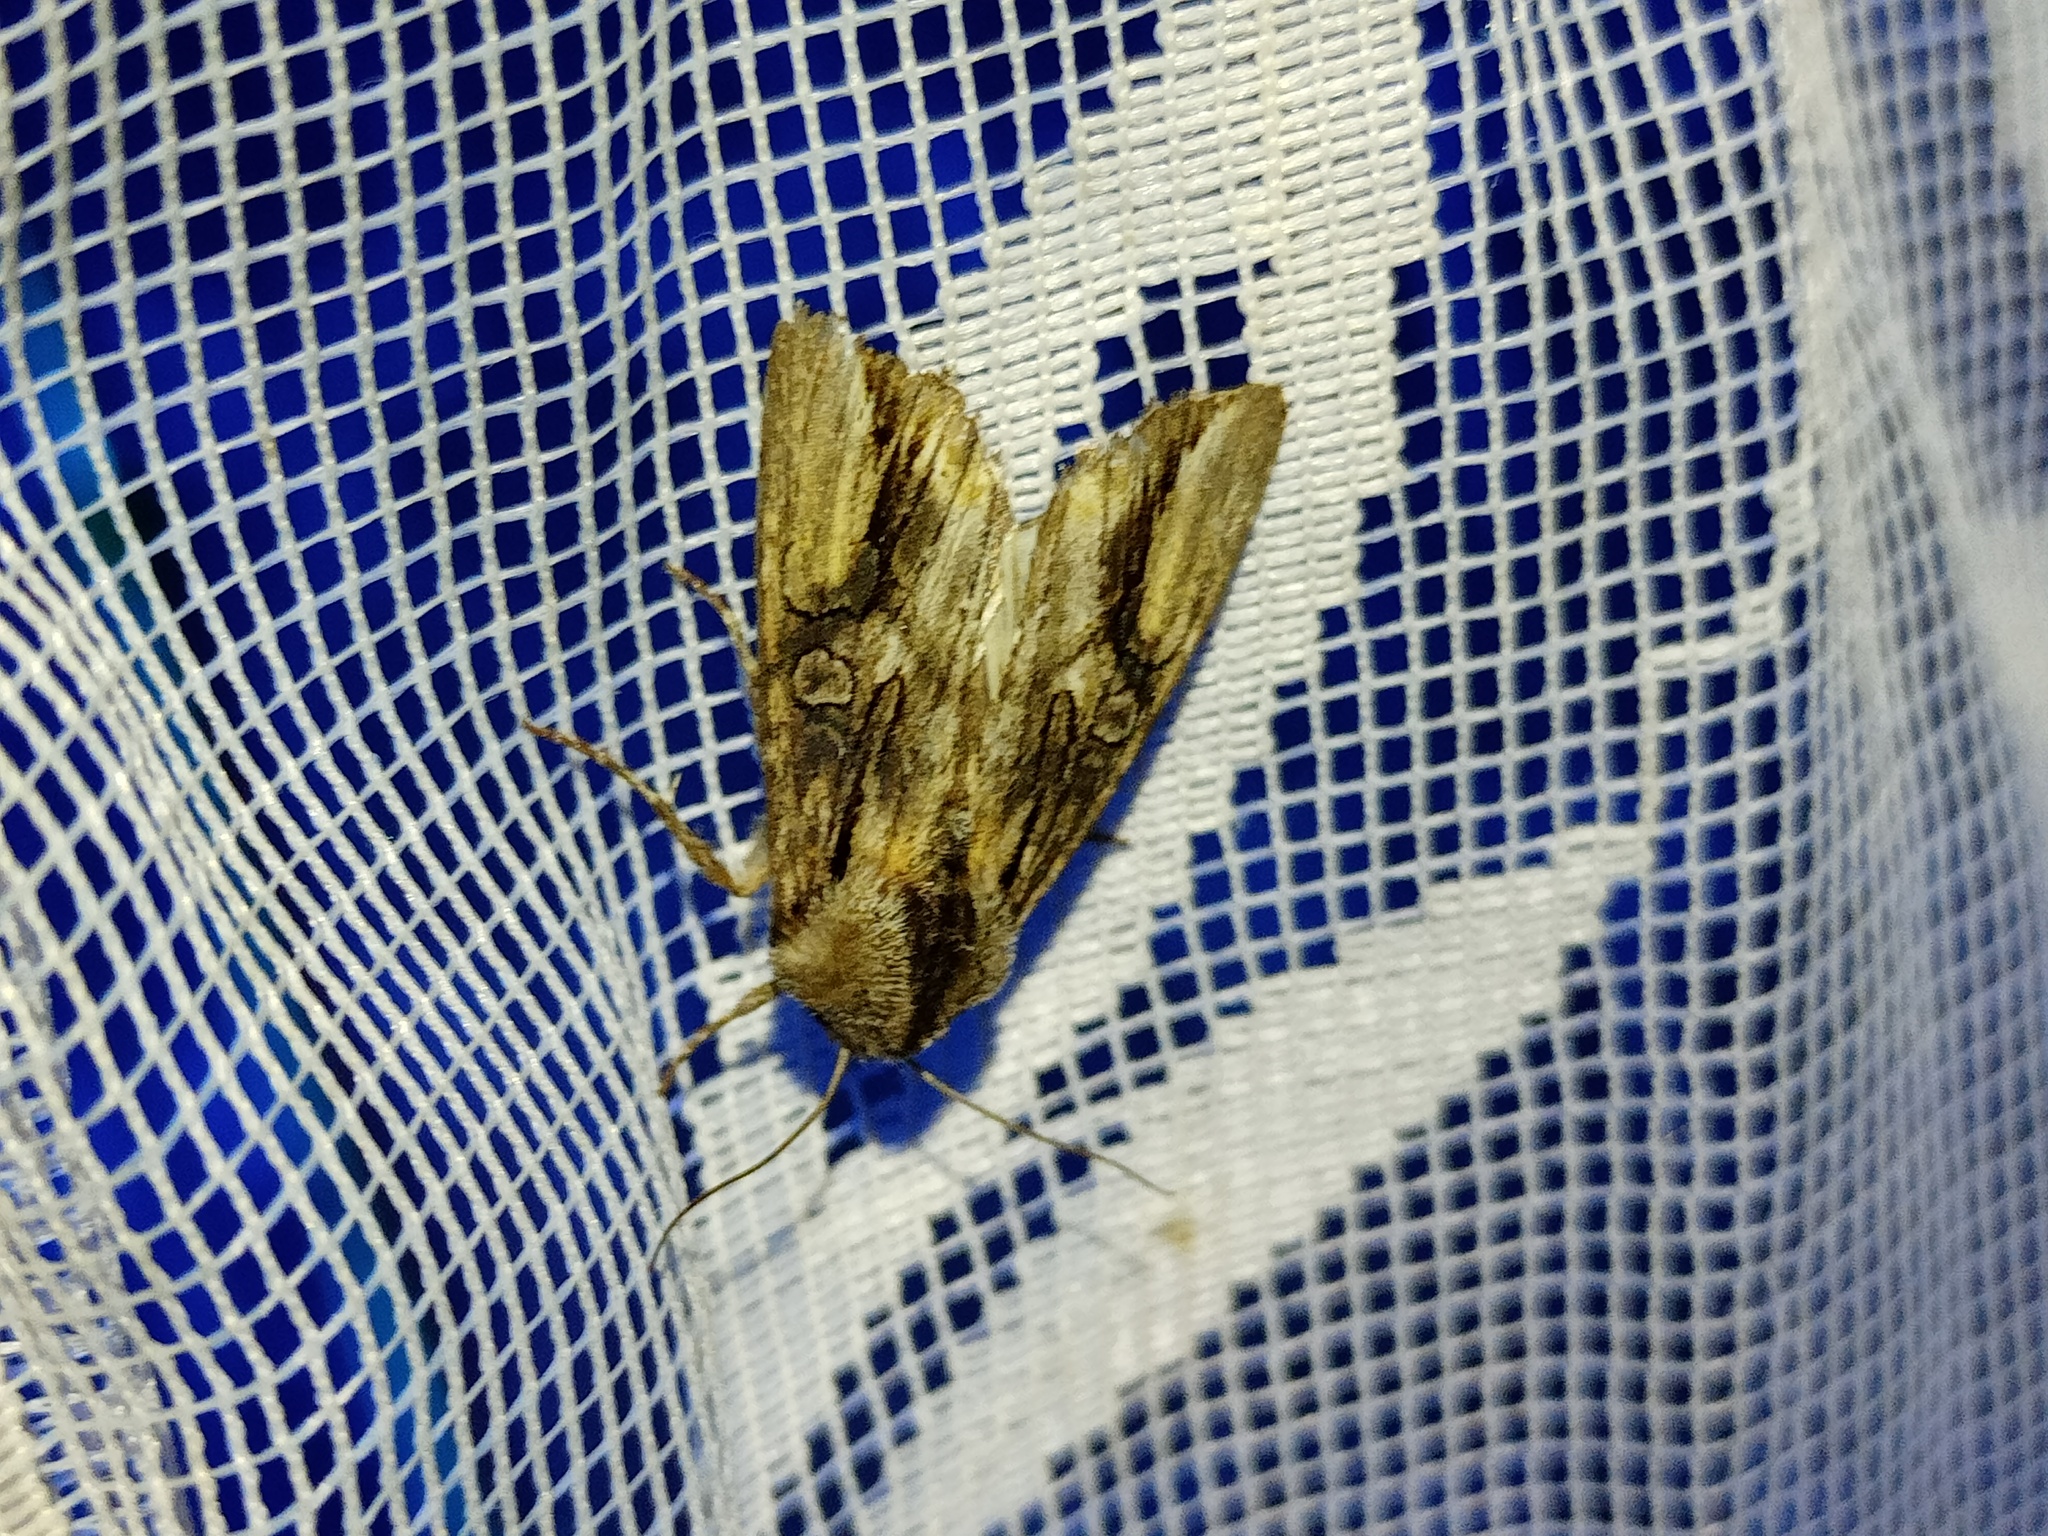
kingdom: Animalia
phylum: Arthropoda
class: Insecta
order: Lepidoptera
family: Noctuidae
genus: Egira
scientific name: Egira conspicillaris
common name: Silver cloud
